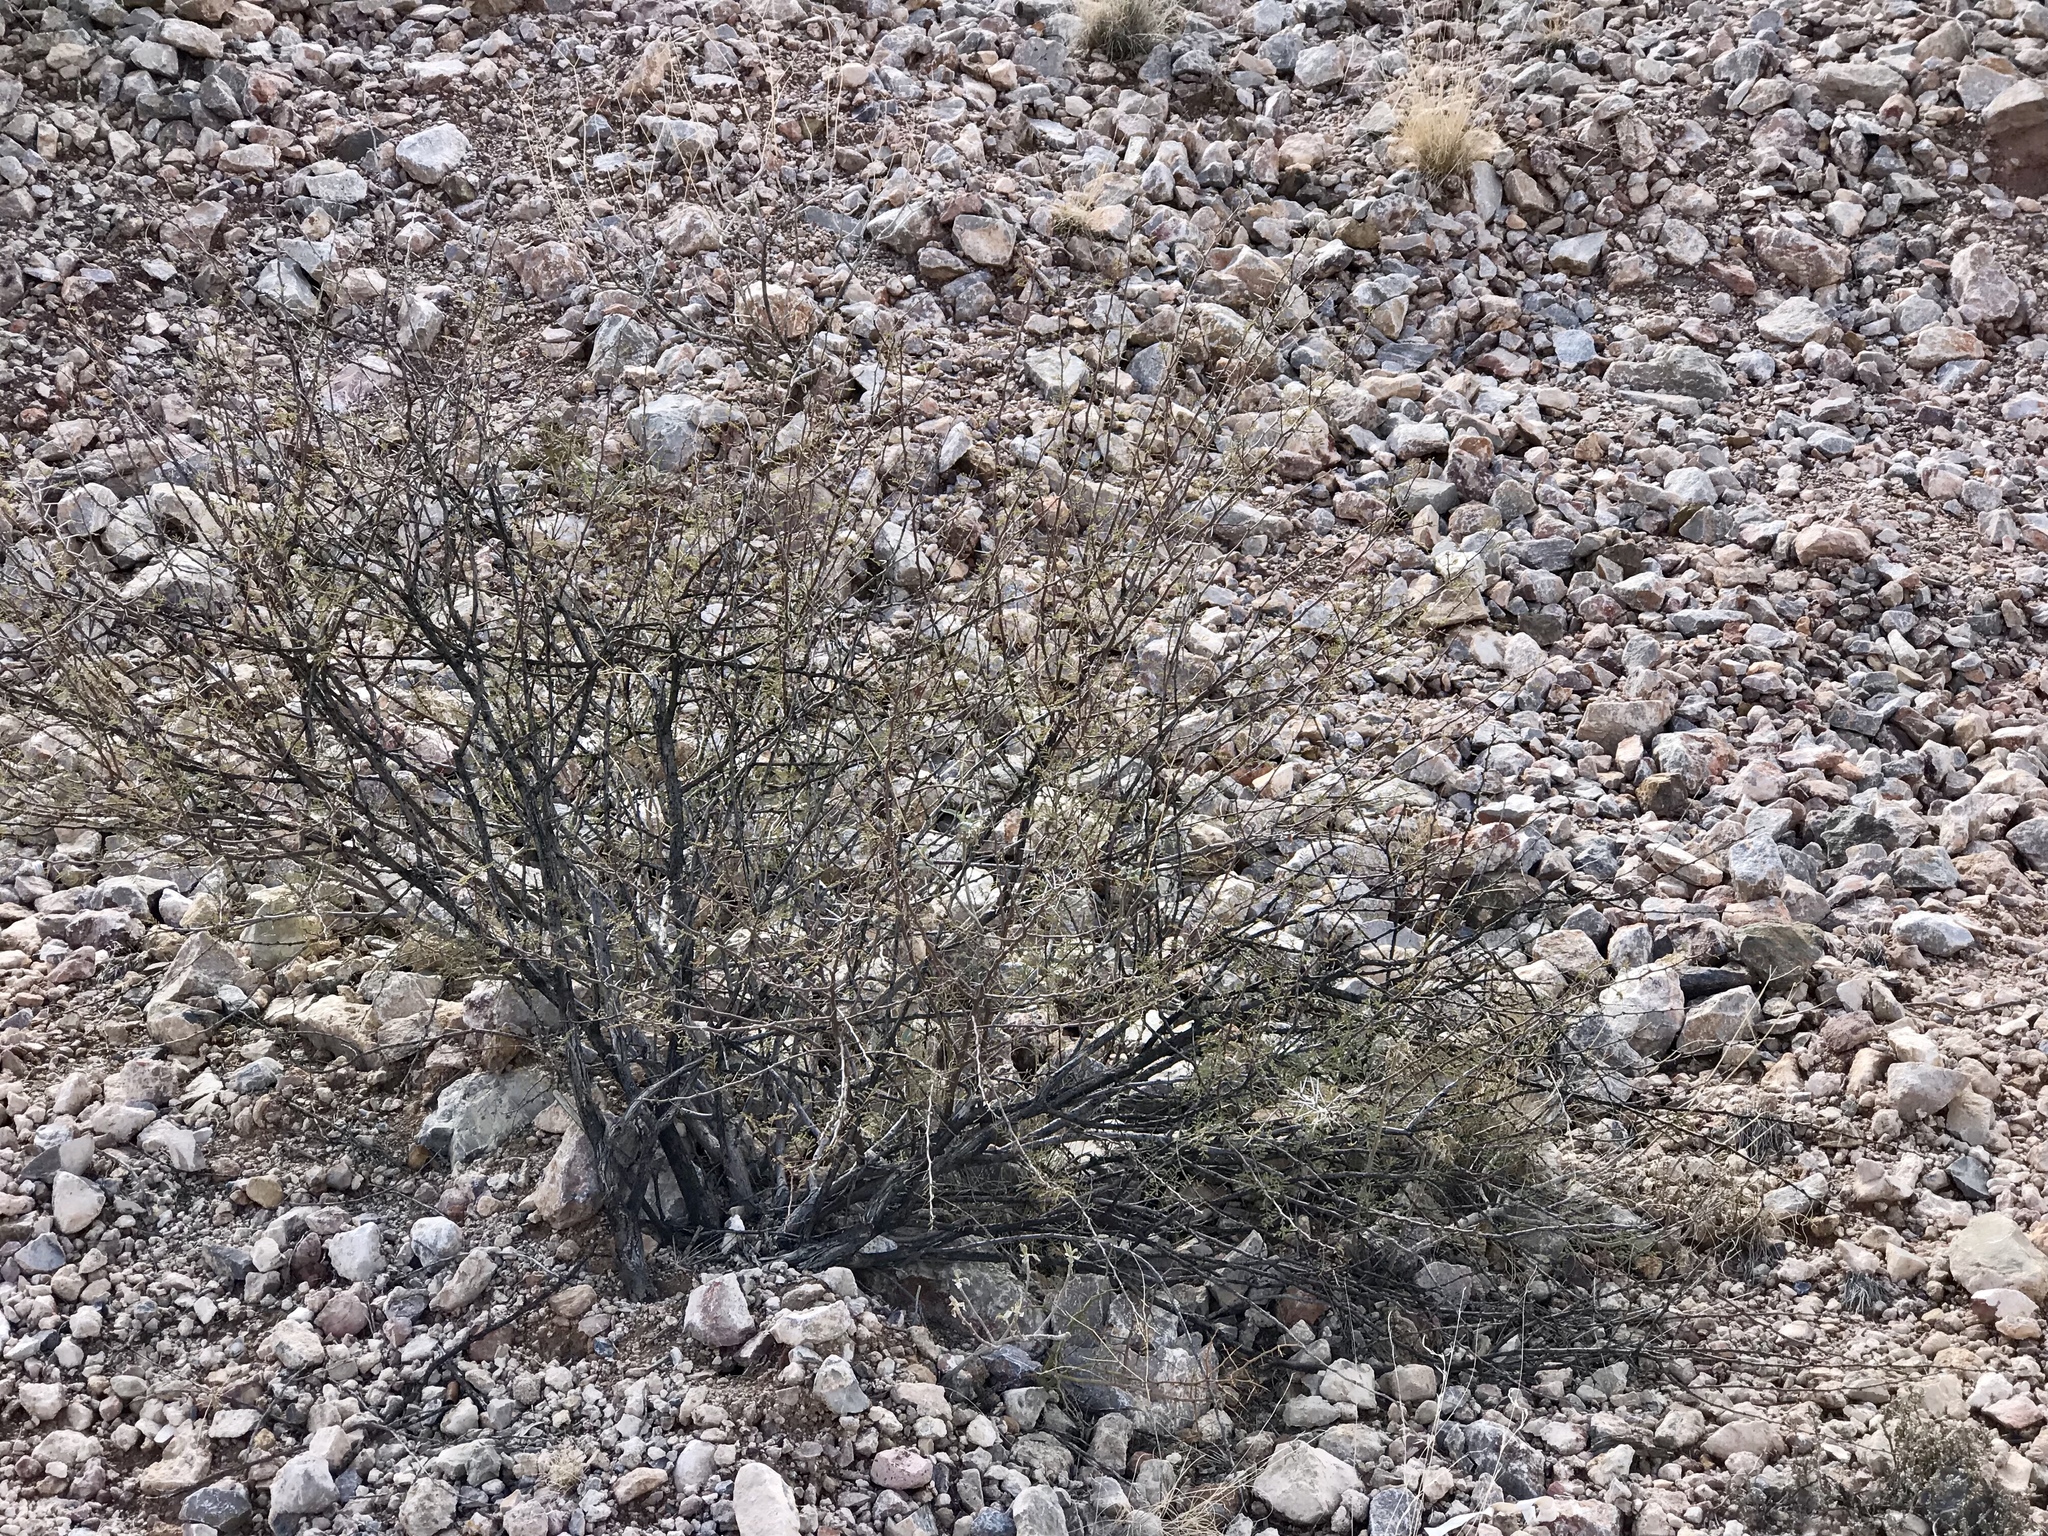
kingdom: Plantae
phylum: Tracheophyta
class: Magnoliopsida
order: Fabales
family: Fabaceae
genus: Vachellia
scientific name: Vachellia constricta
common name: Mescat acacia
